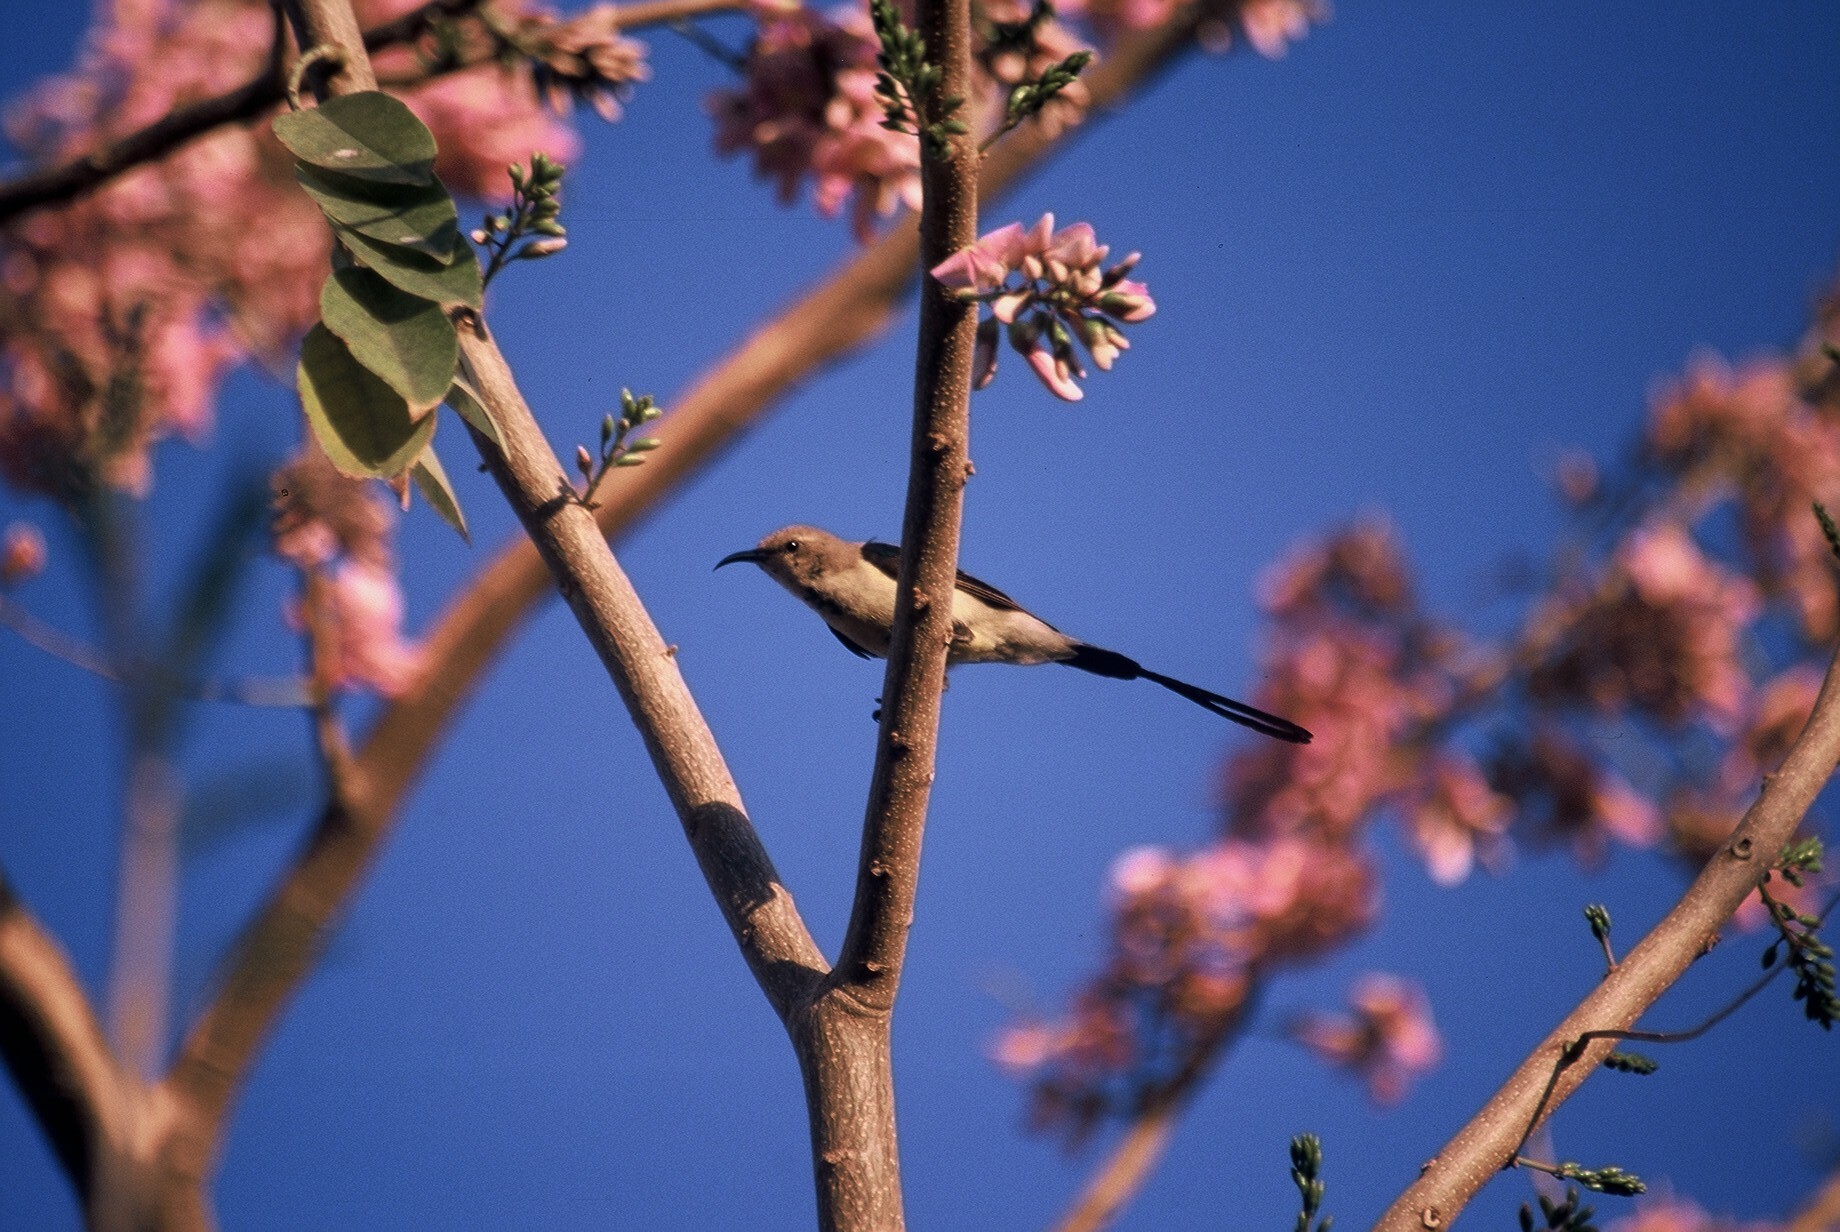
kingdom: Animalia
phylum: Chordata
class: Aves
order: Passeriformes
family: Nectariniidae
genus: Cinnyris
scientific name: Cinnyris pulchellus
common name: Beautiful sunbird
